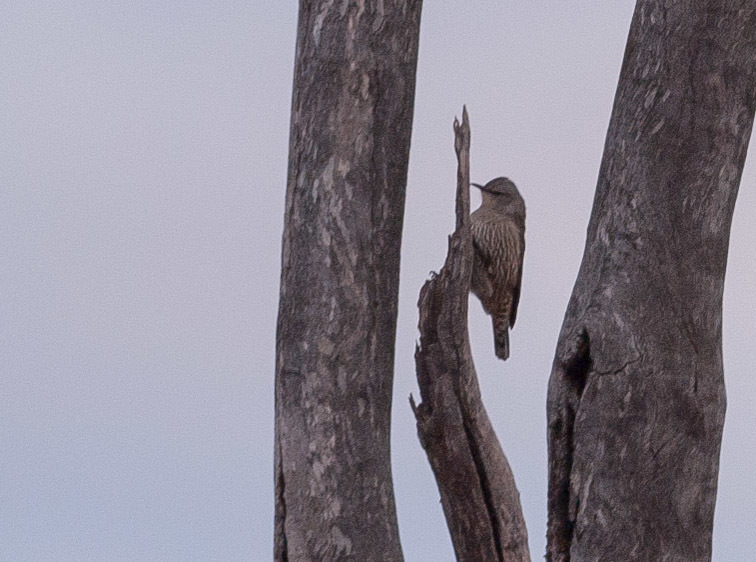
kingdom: Animalia
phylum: Chordata
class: Aves
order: Passeriformes
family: Climacteridae
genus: Climacteris
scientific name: Climacteris picumnus
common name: Brown treecreeper
